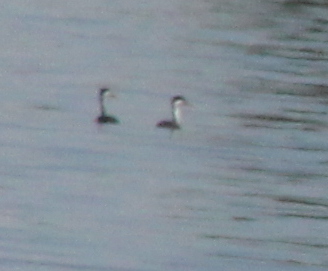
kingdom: Animalia
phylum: Chordata
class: Aves
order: Podicipediformes
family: Podicipedidae
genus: Aechmophorus
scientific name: Aechmophorus occidentalis
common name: Western grebe
